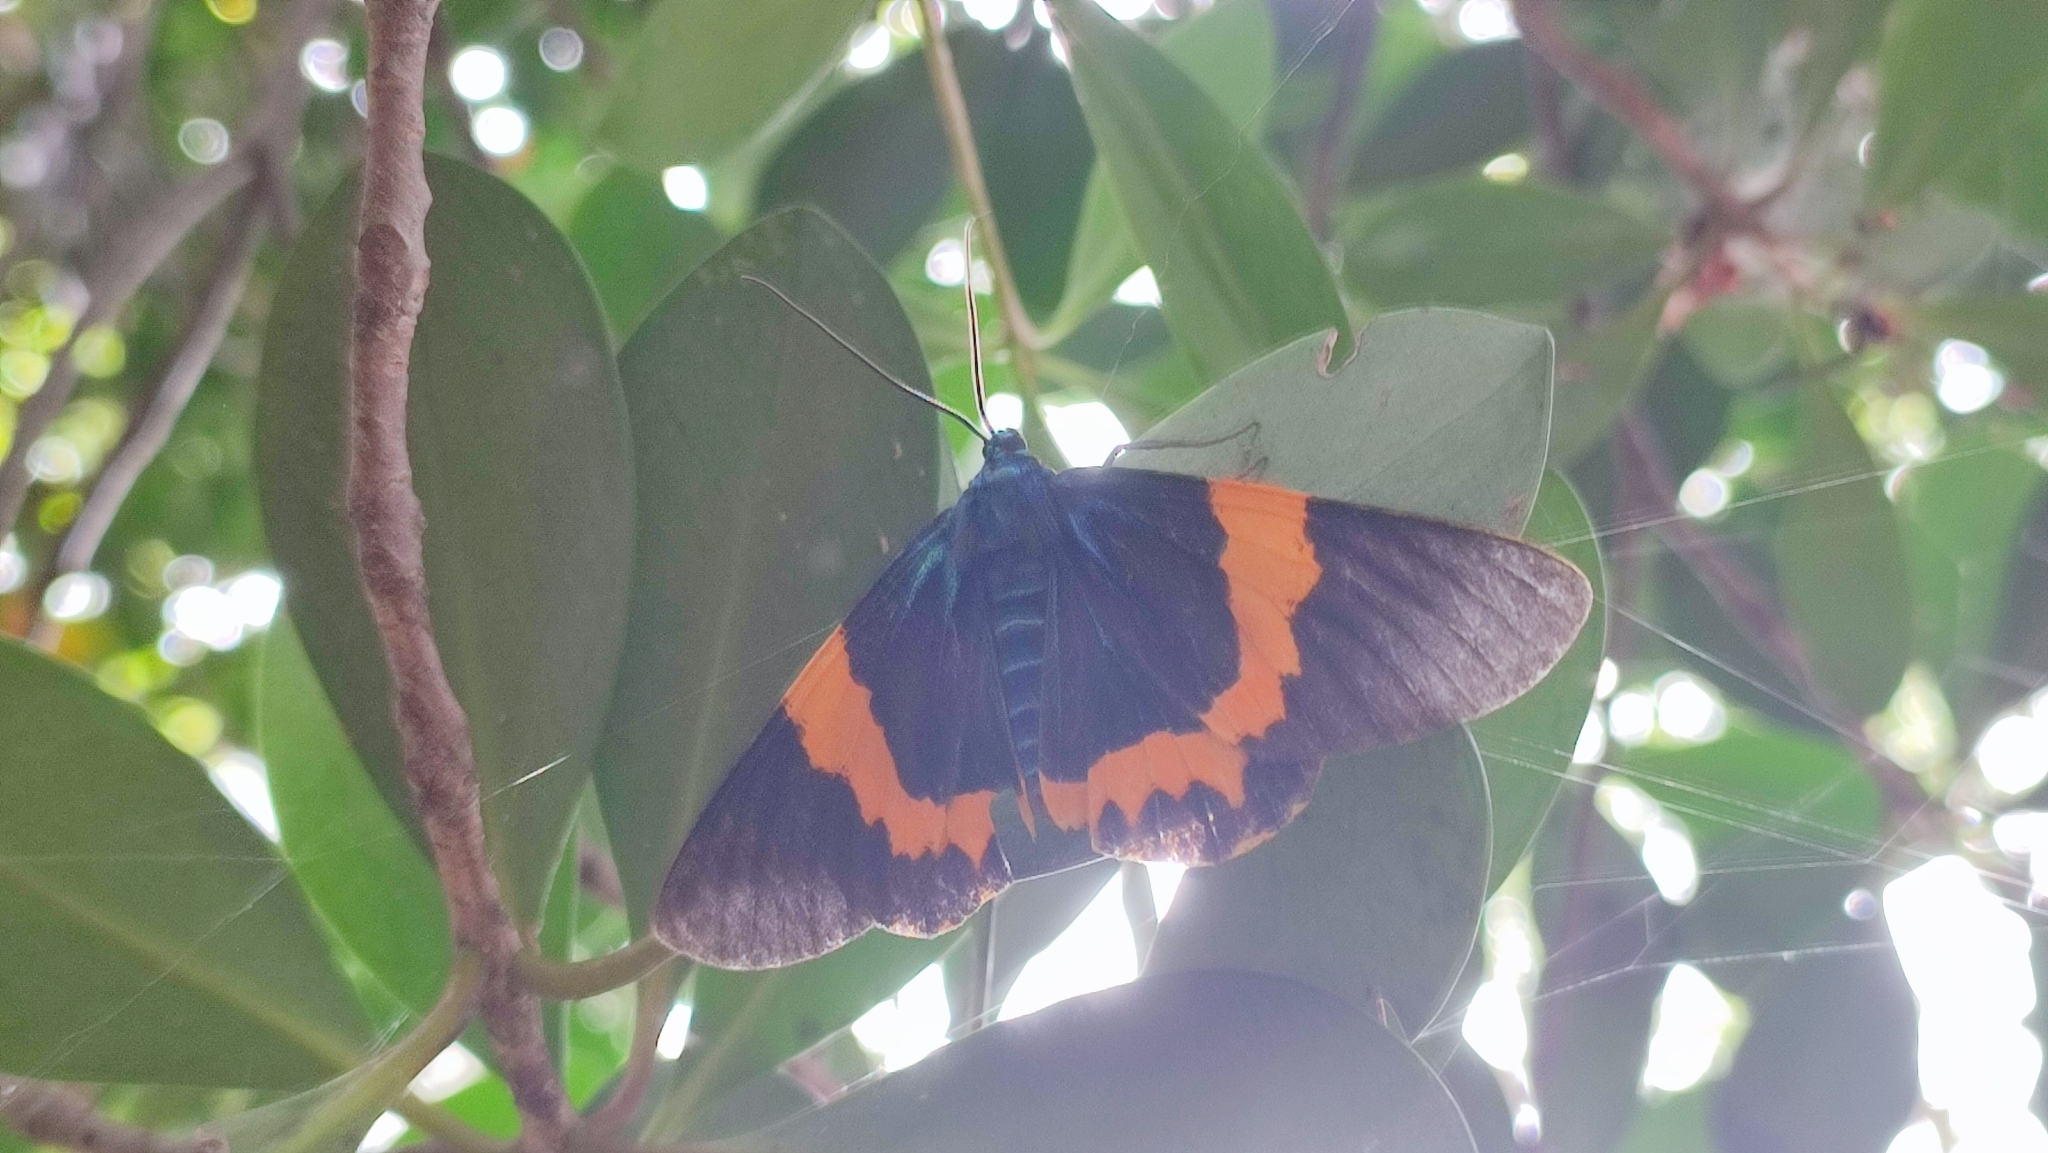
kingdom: Animalia
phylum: Arthropoda
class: Insecta
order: Lepidoptera
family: Geometridae
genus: Milionia
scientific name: Milionia basalis
